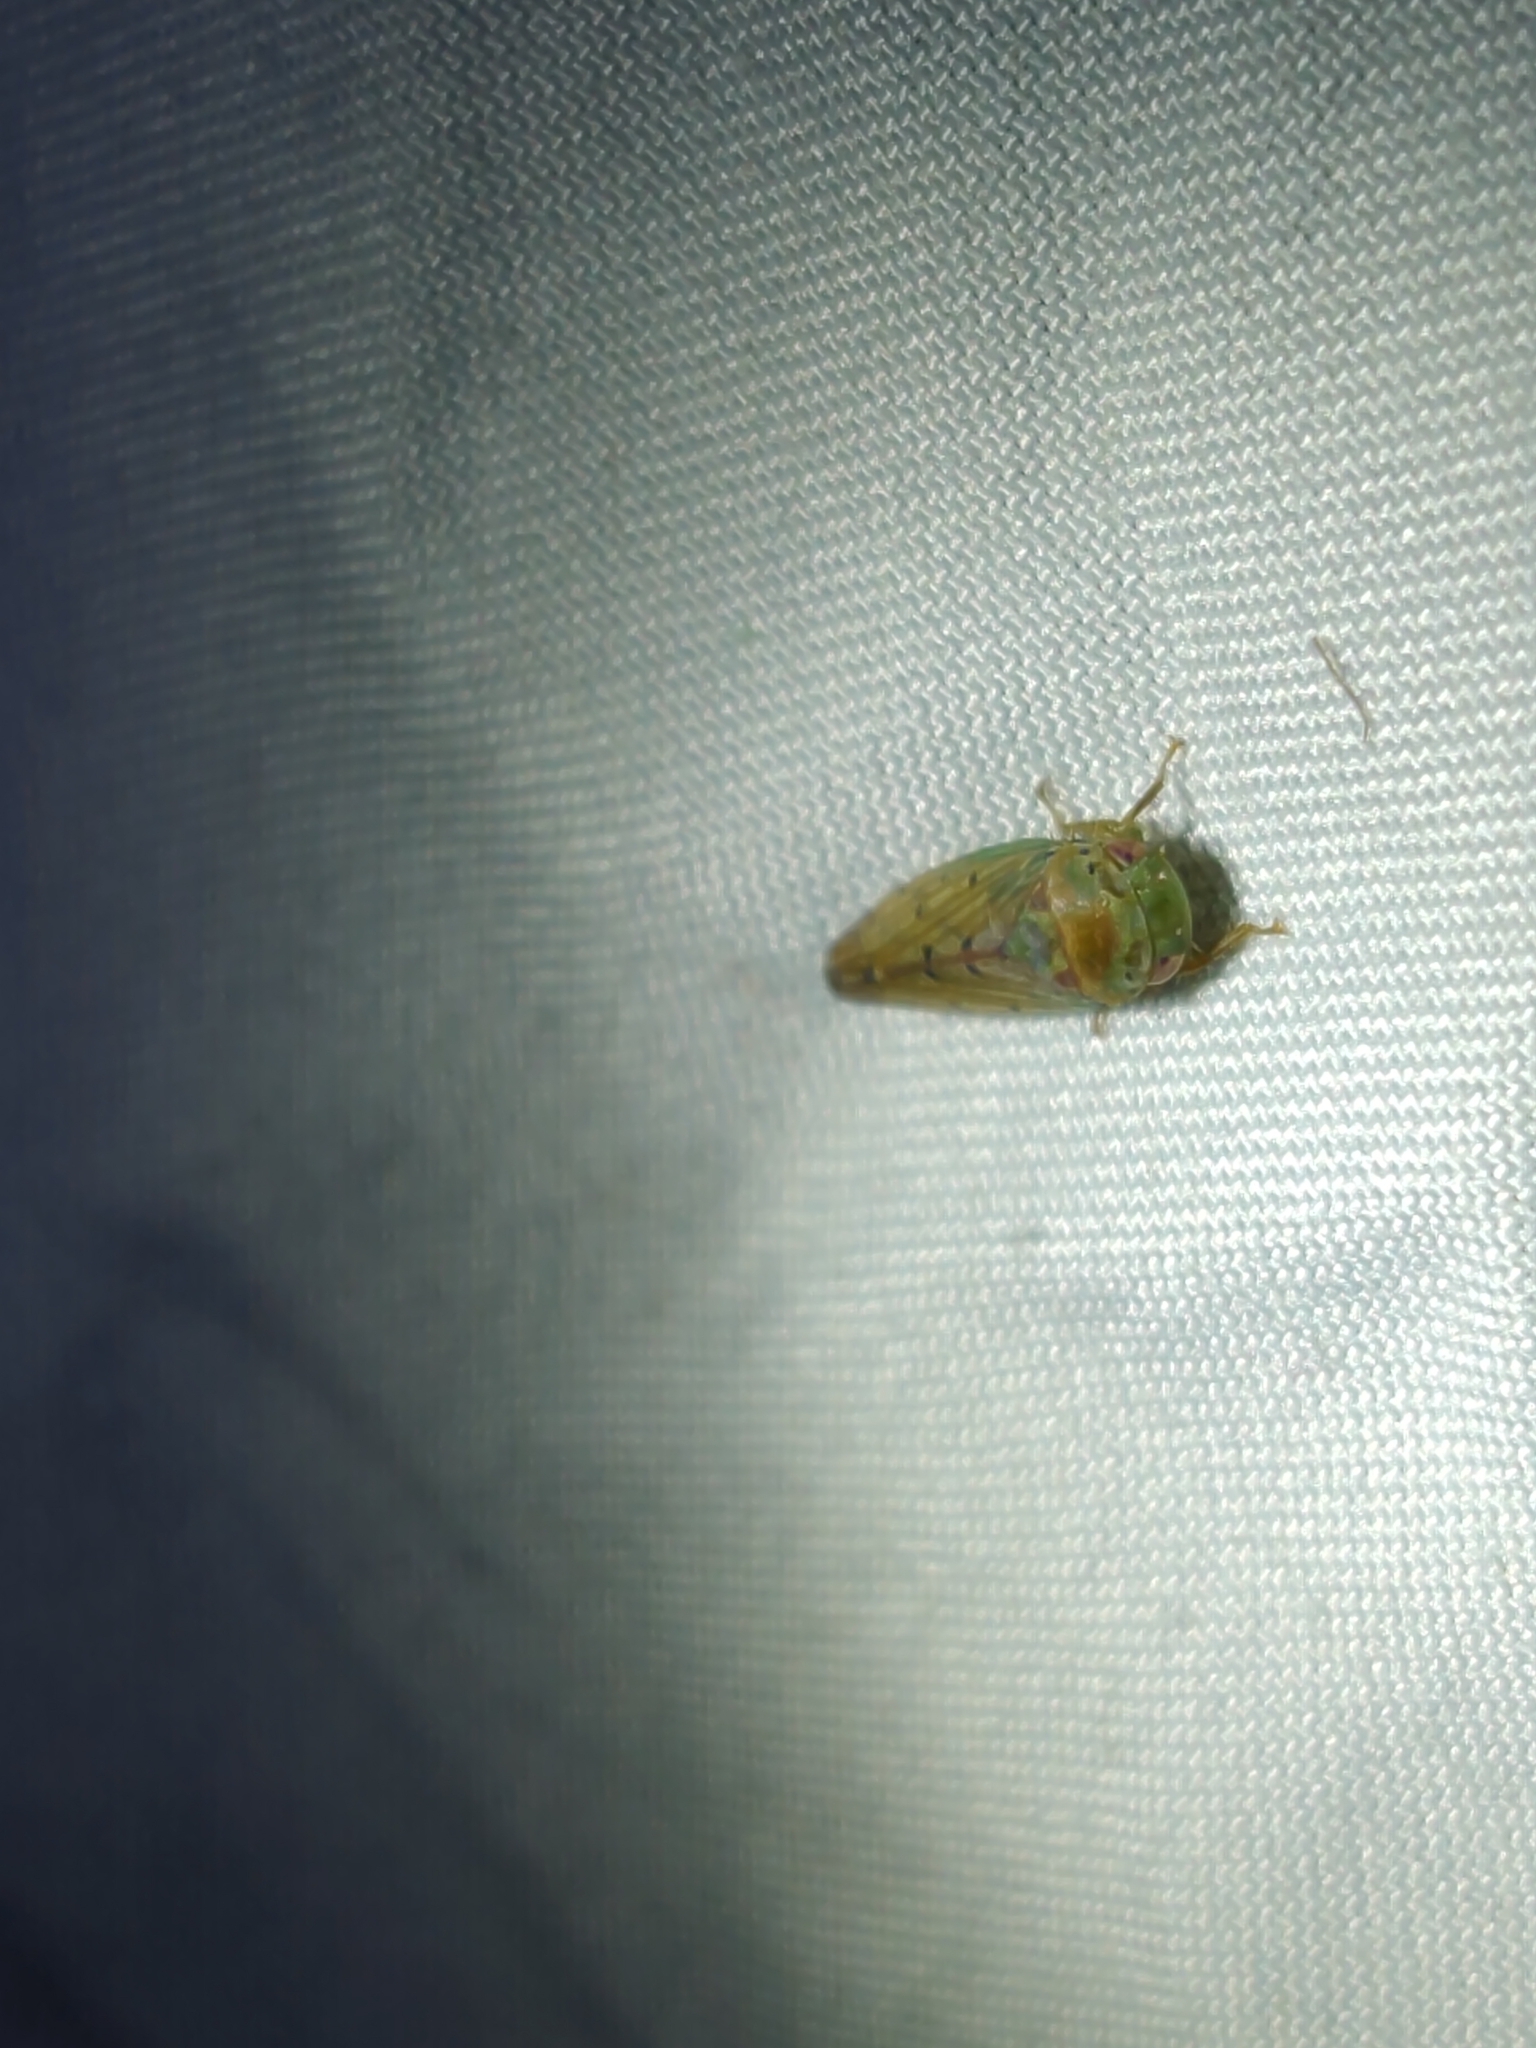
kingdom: Animalia
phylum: Arthropoda
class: Insecta
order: Hemiptera
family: Cicadellidae
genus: Polana
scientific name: Polana quadrinotata
